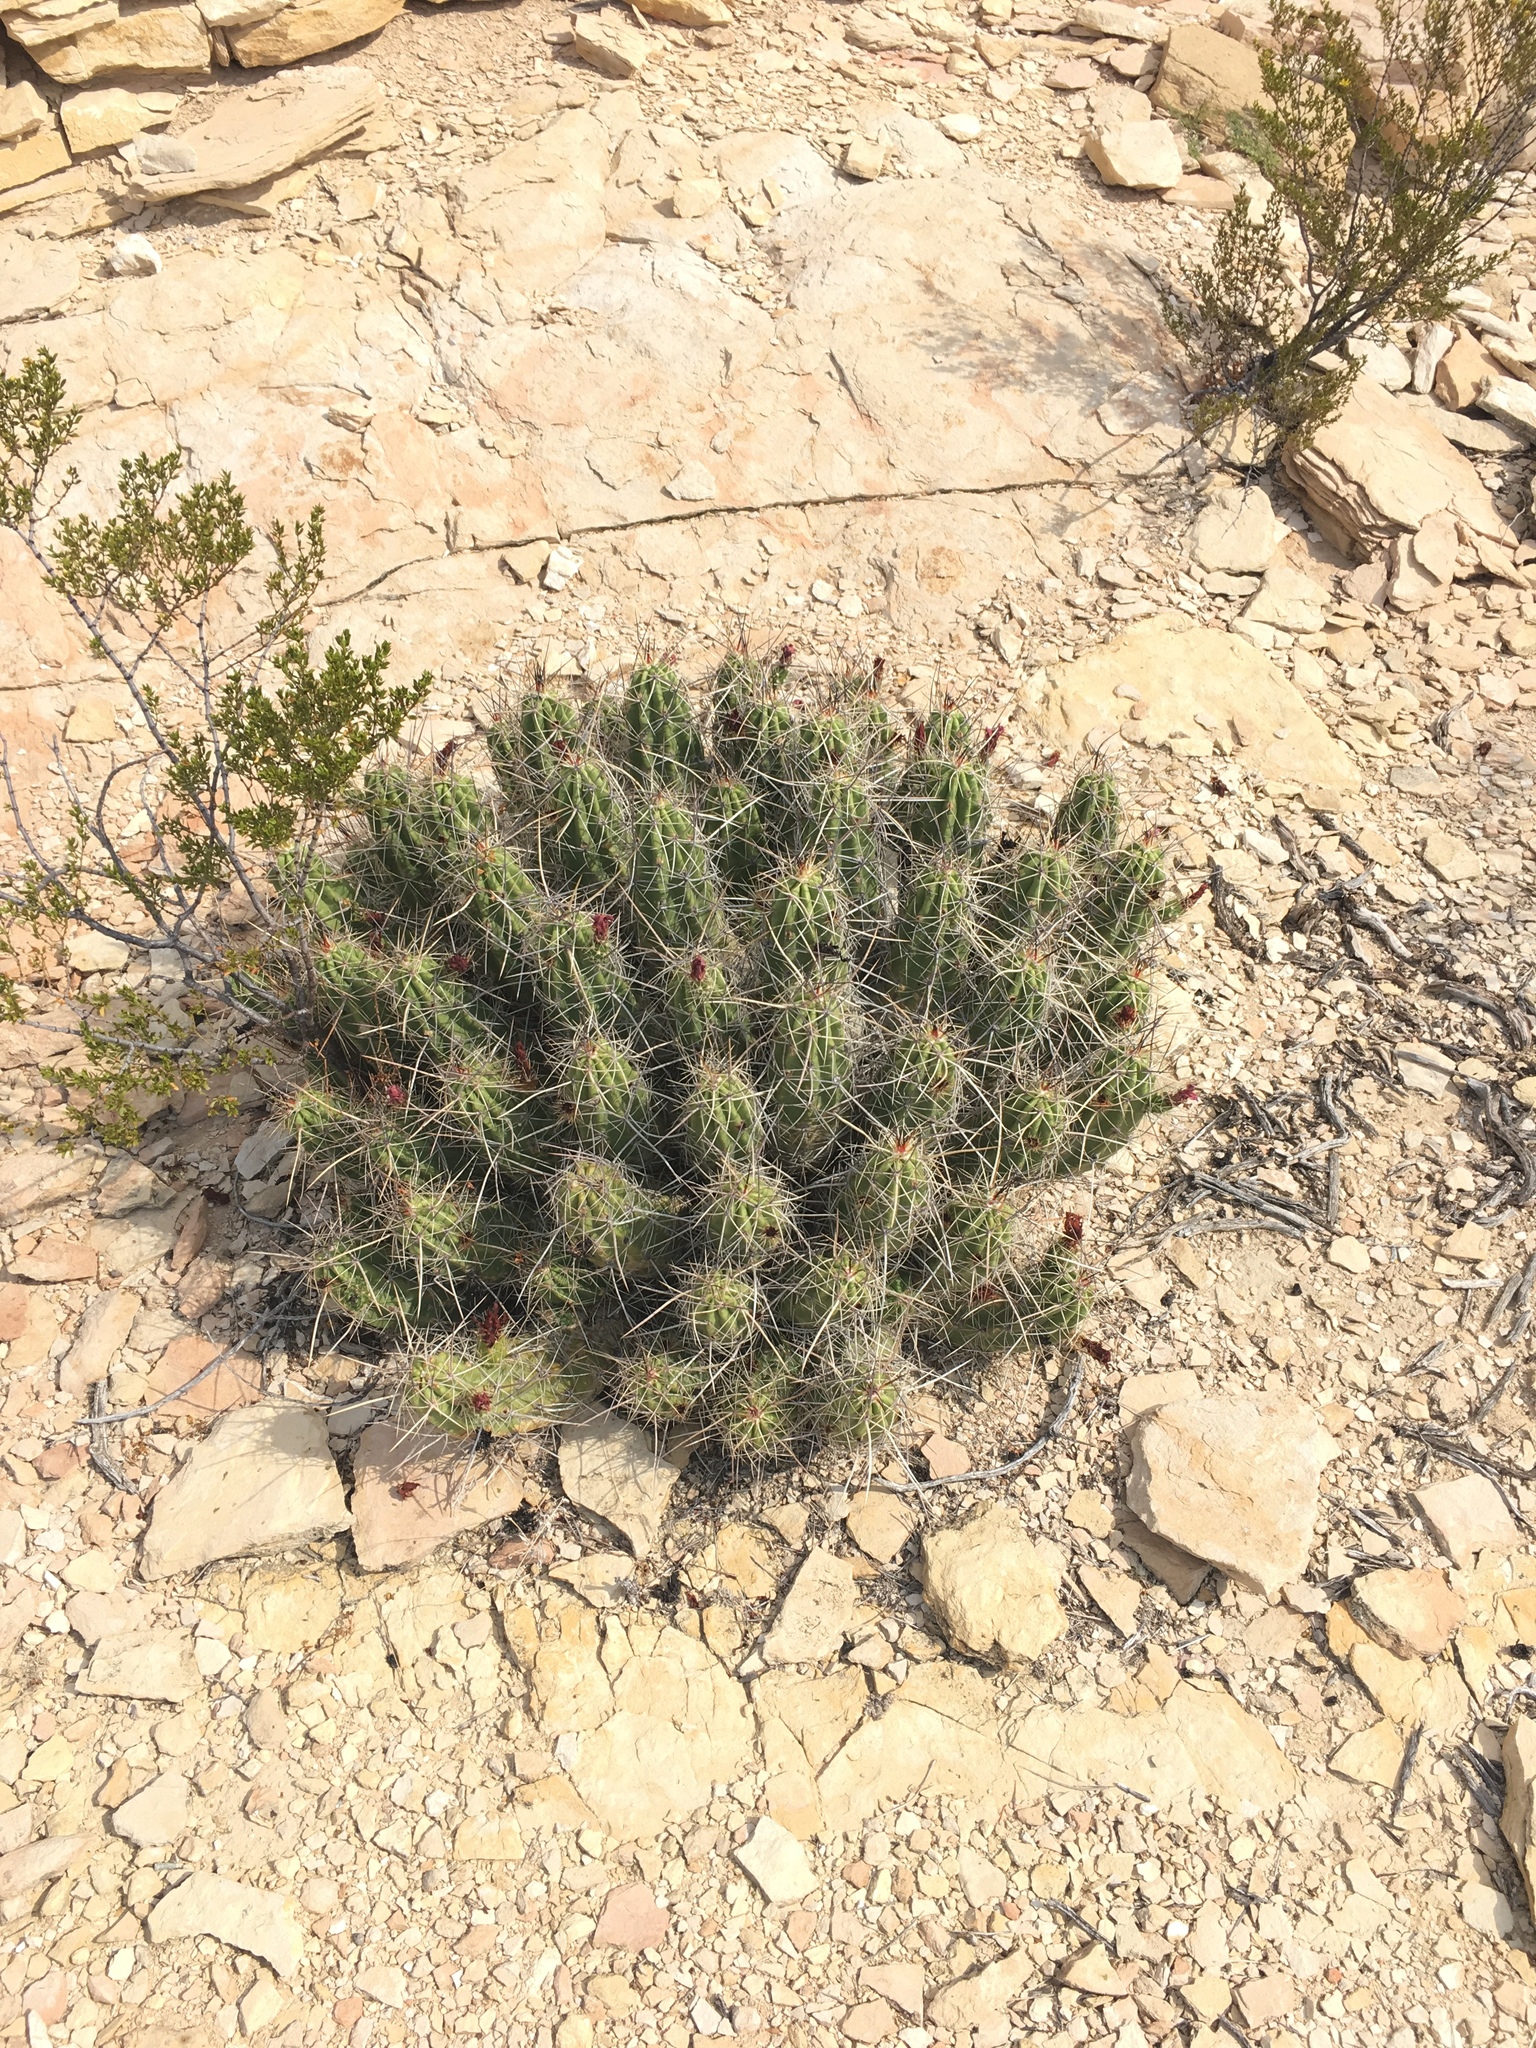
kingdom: Plantae
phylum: Tracheophyta
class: Magnoliopsida
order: Caryophyllales
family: Cactaceae
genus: Echinocereus
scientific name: Echinocereus enneacanthus
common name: Pitaya
